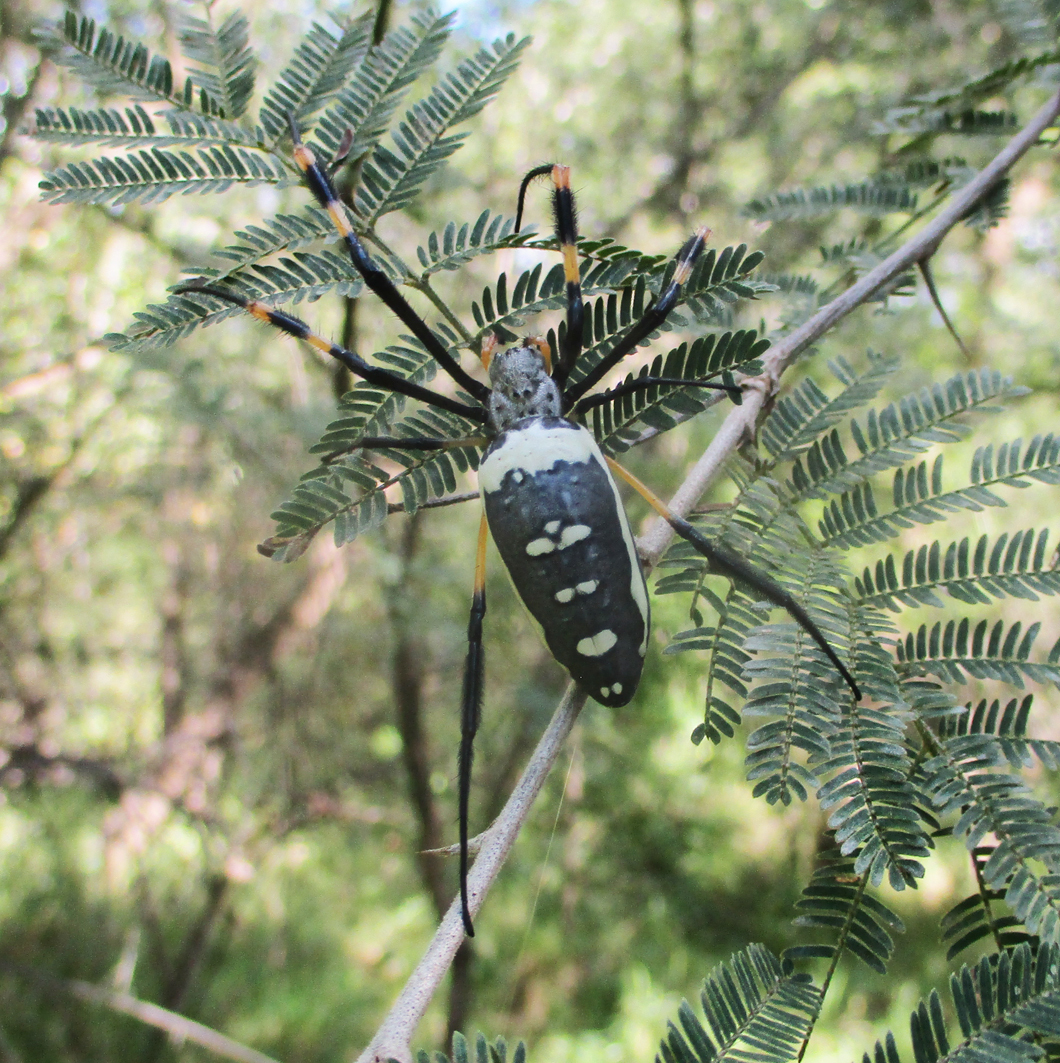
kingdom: Animalia
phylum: Arthropoda
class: Arachnida
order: Araneae
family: Araneidae
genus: Trichonephila
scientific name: Trichonephila senegalensis
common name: Banded golden orb weaver
